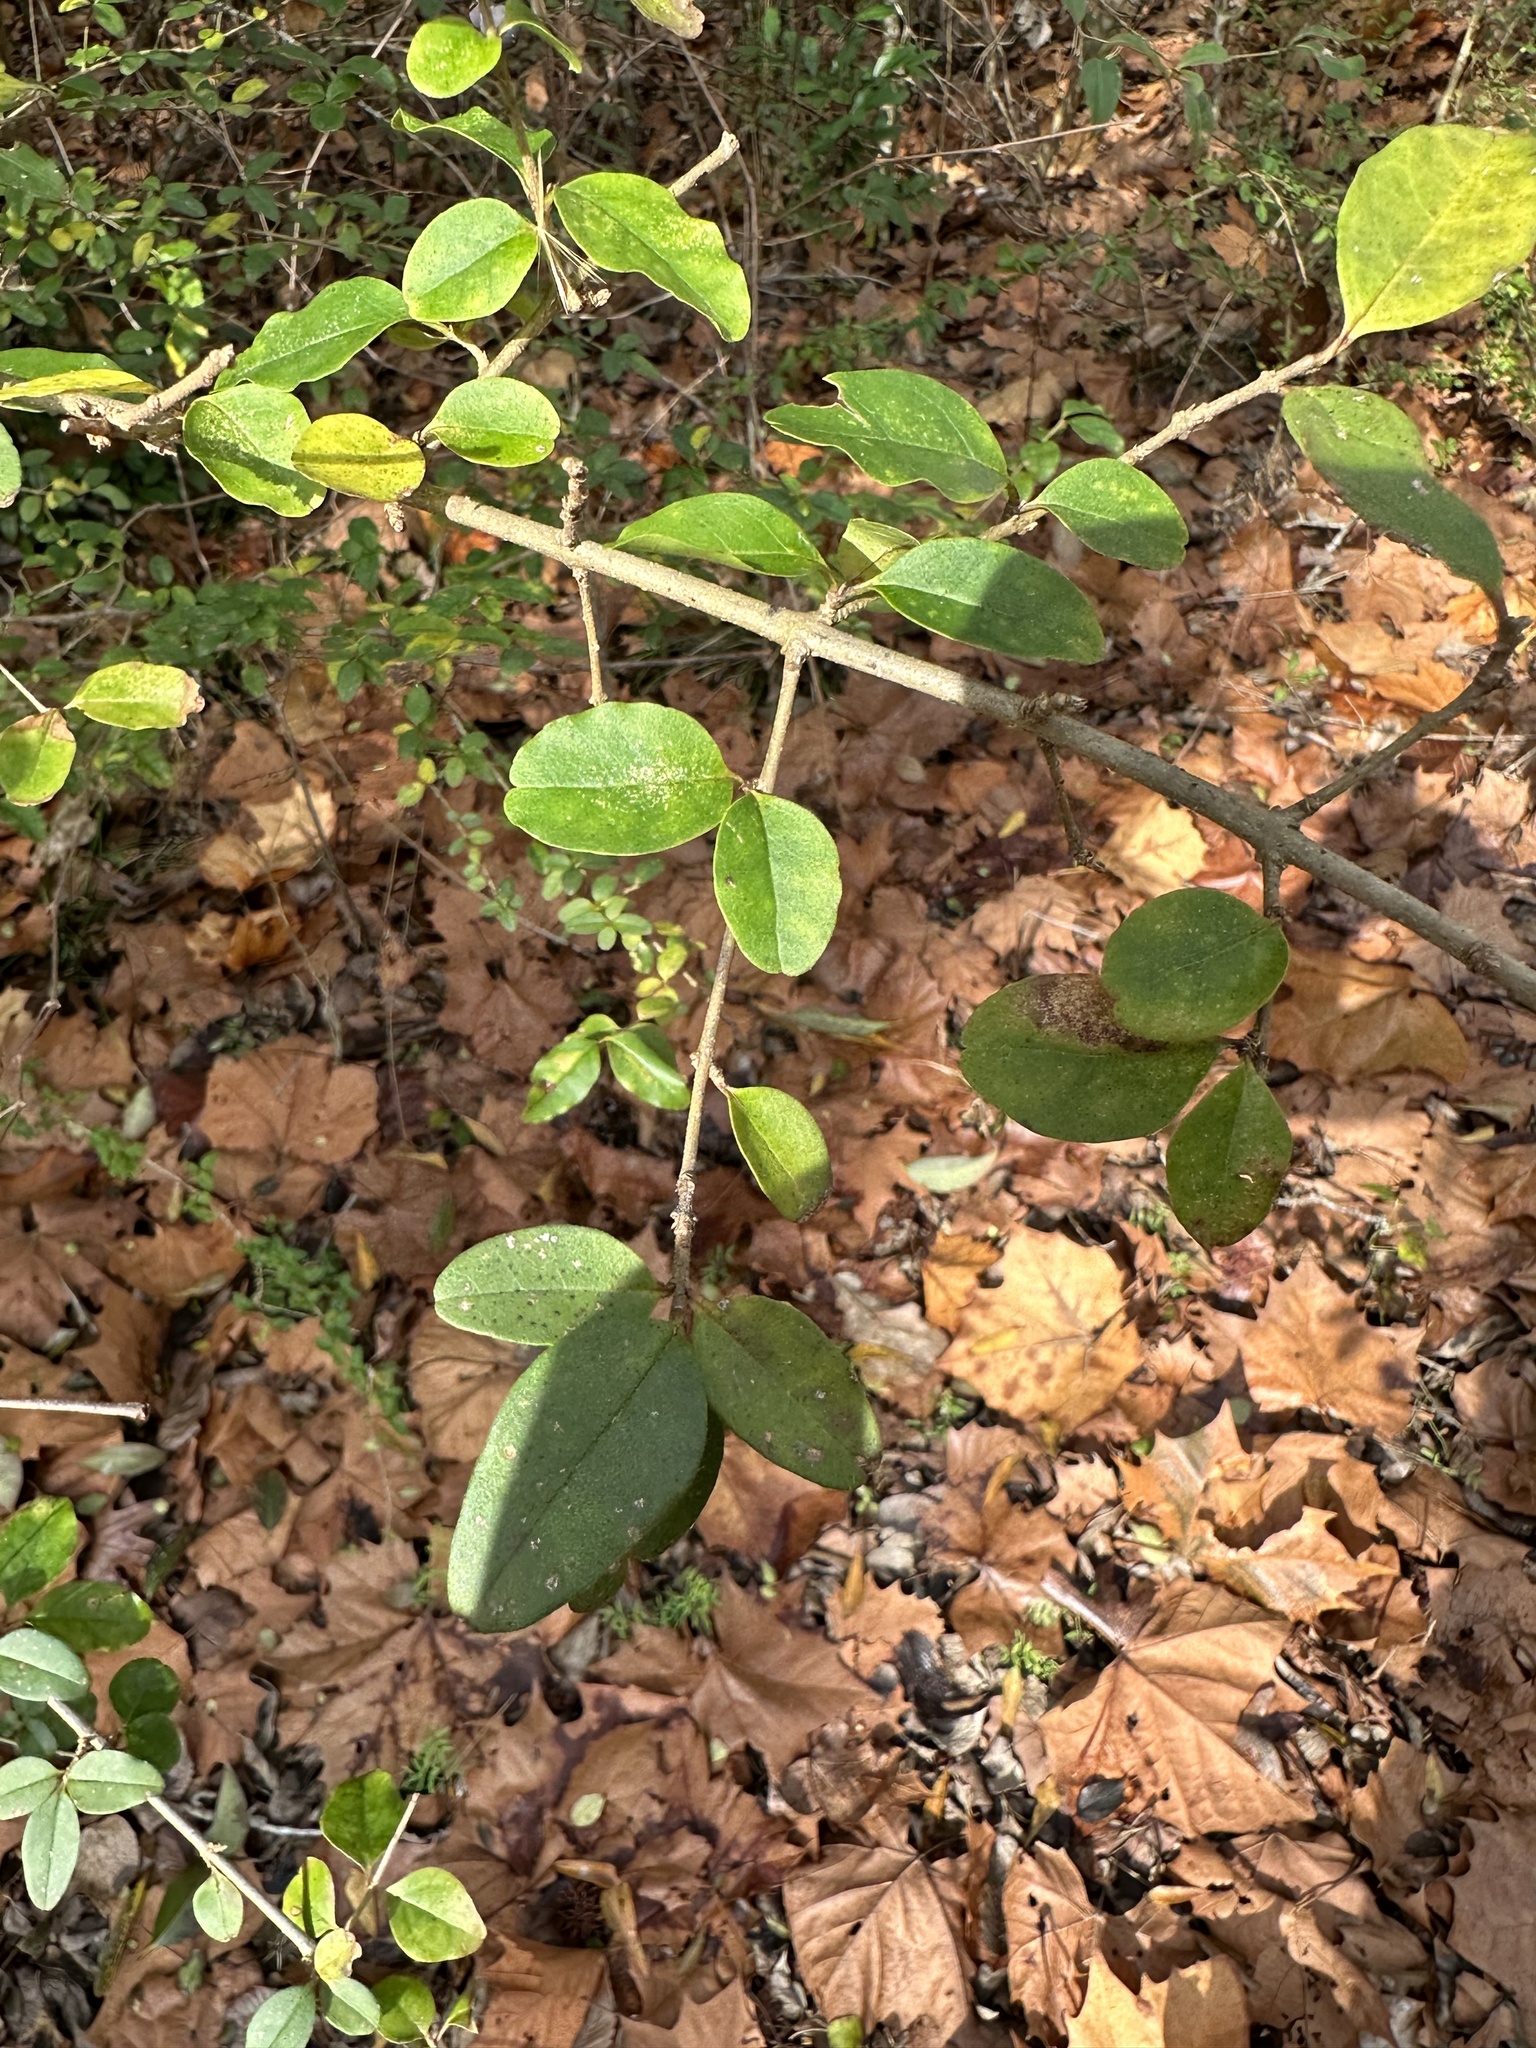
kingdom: Plantae
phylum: Tracheophyta
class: Magnoliopsida
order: Lamiales
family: Oleaceae
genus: Ligustrum
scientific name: Ligustrum sinense
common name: Chinese privet
